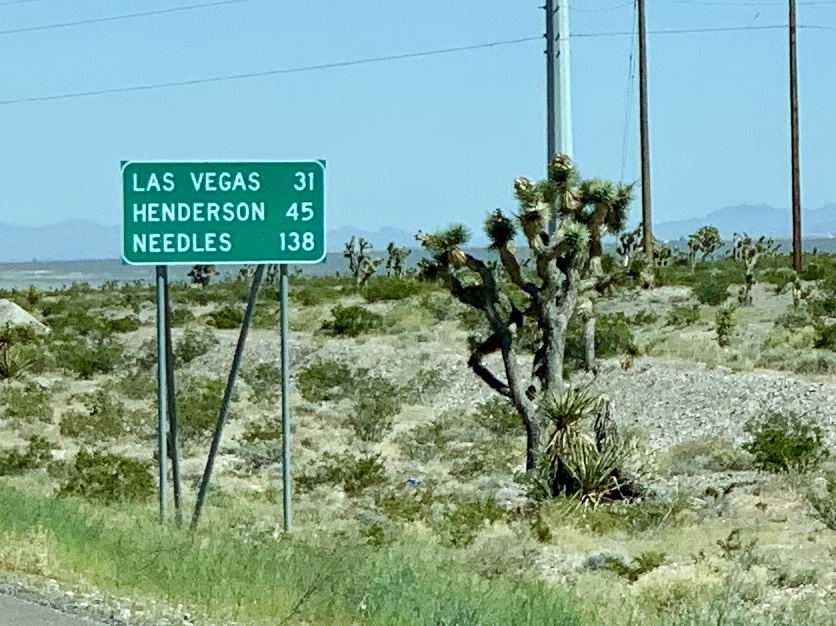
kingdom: Plantae
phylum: Tracheophyta
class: Liliopsida
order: Asparagales
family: Asparagaceae
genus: Yucca
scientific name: Yucca brevifolia
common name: Joshua tree
